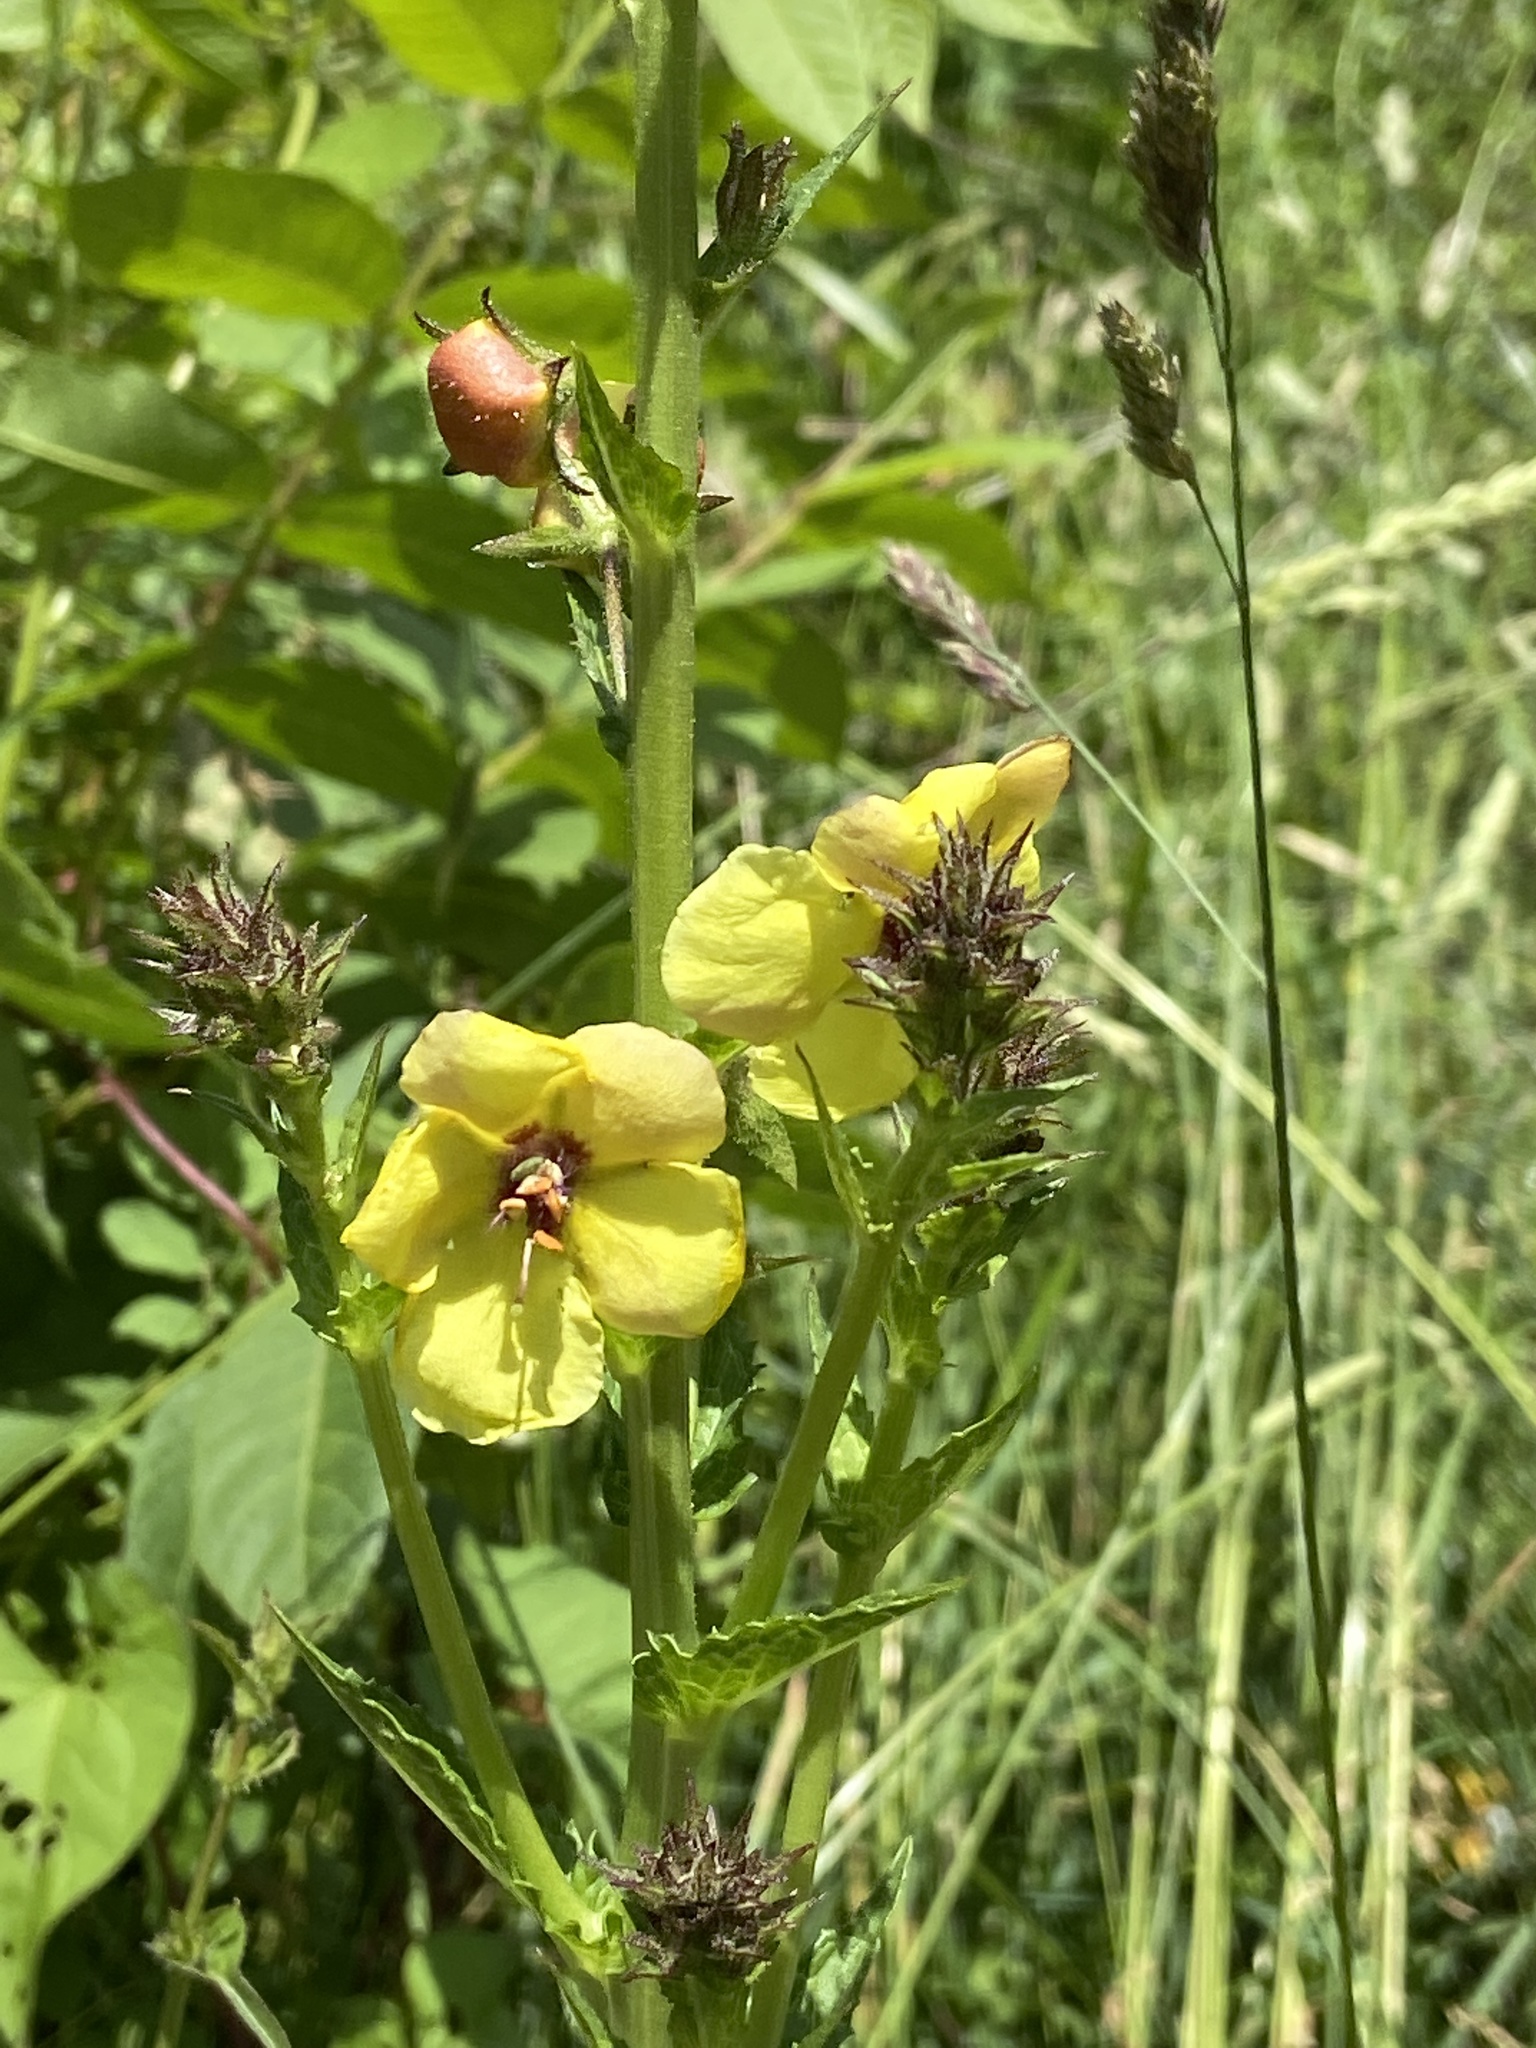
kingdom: Plantae
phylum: Tracheophyta
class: Magnoliopsida
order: Lamiales
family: Scrophulariaceae
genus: Verbascum
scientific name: Verbascum blattaria
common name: Moth mullein
